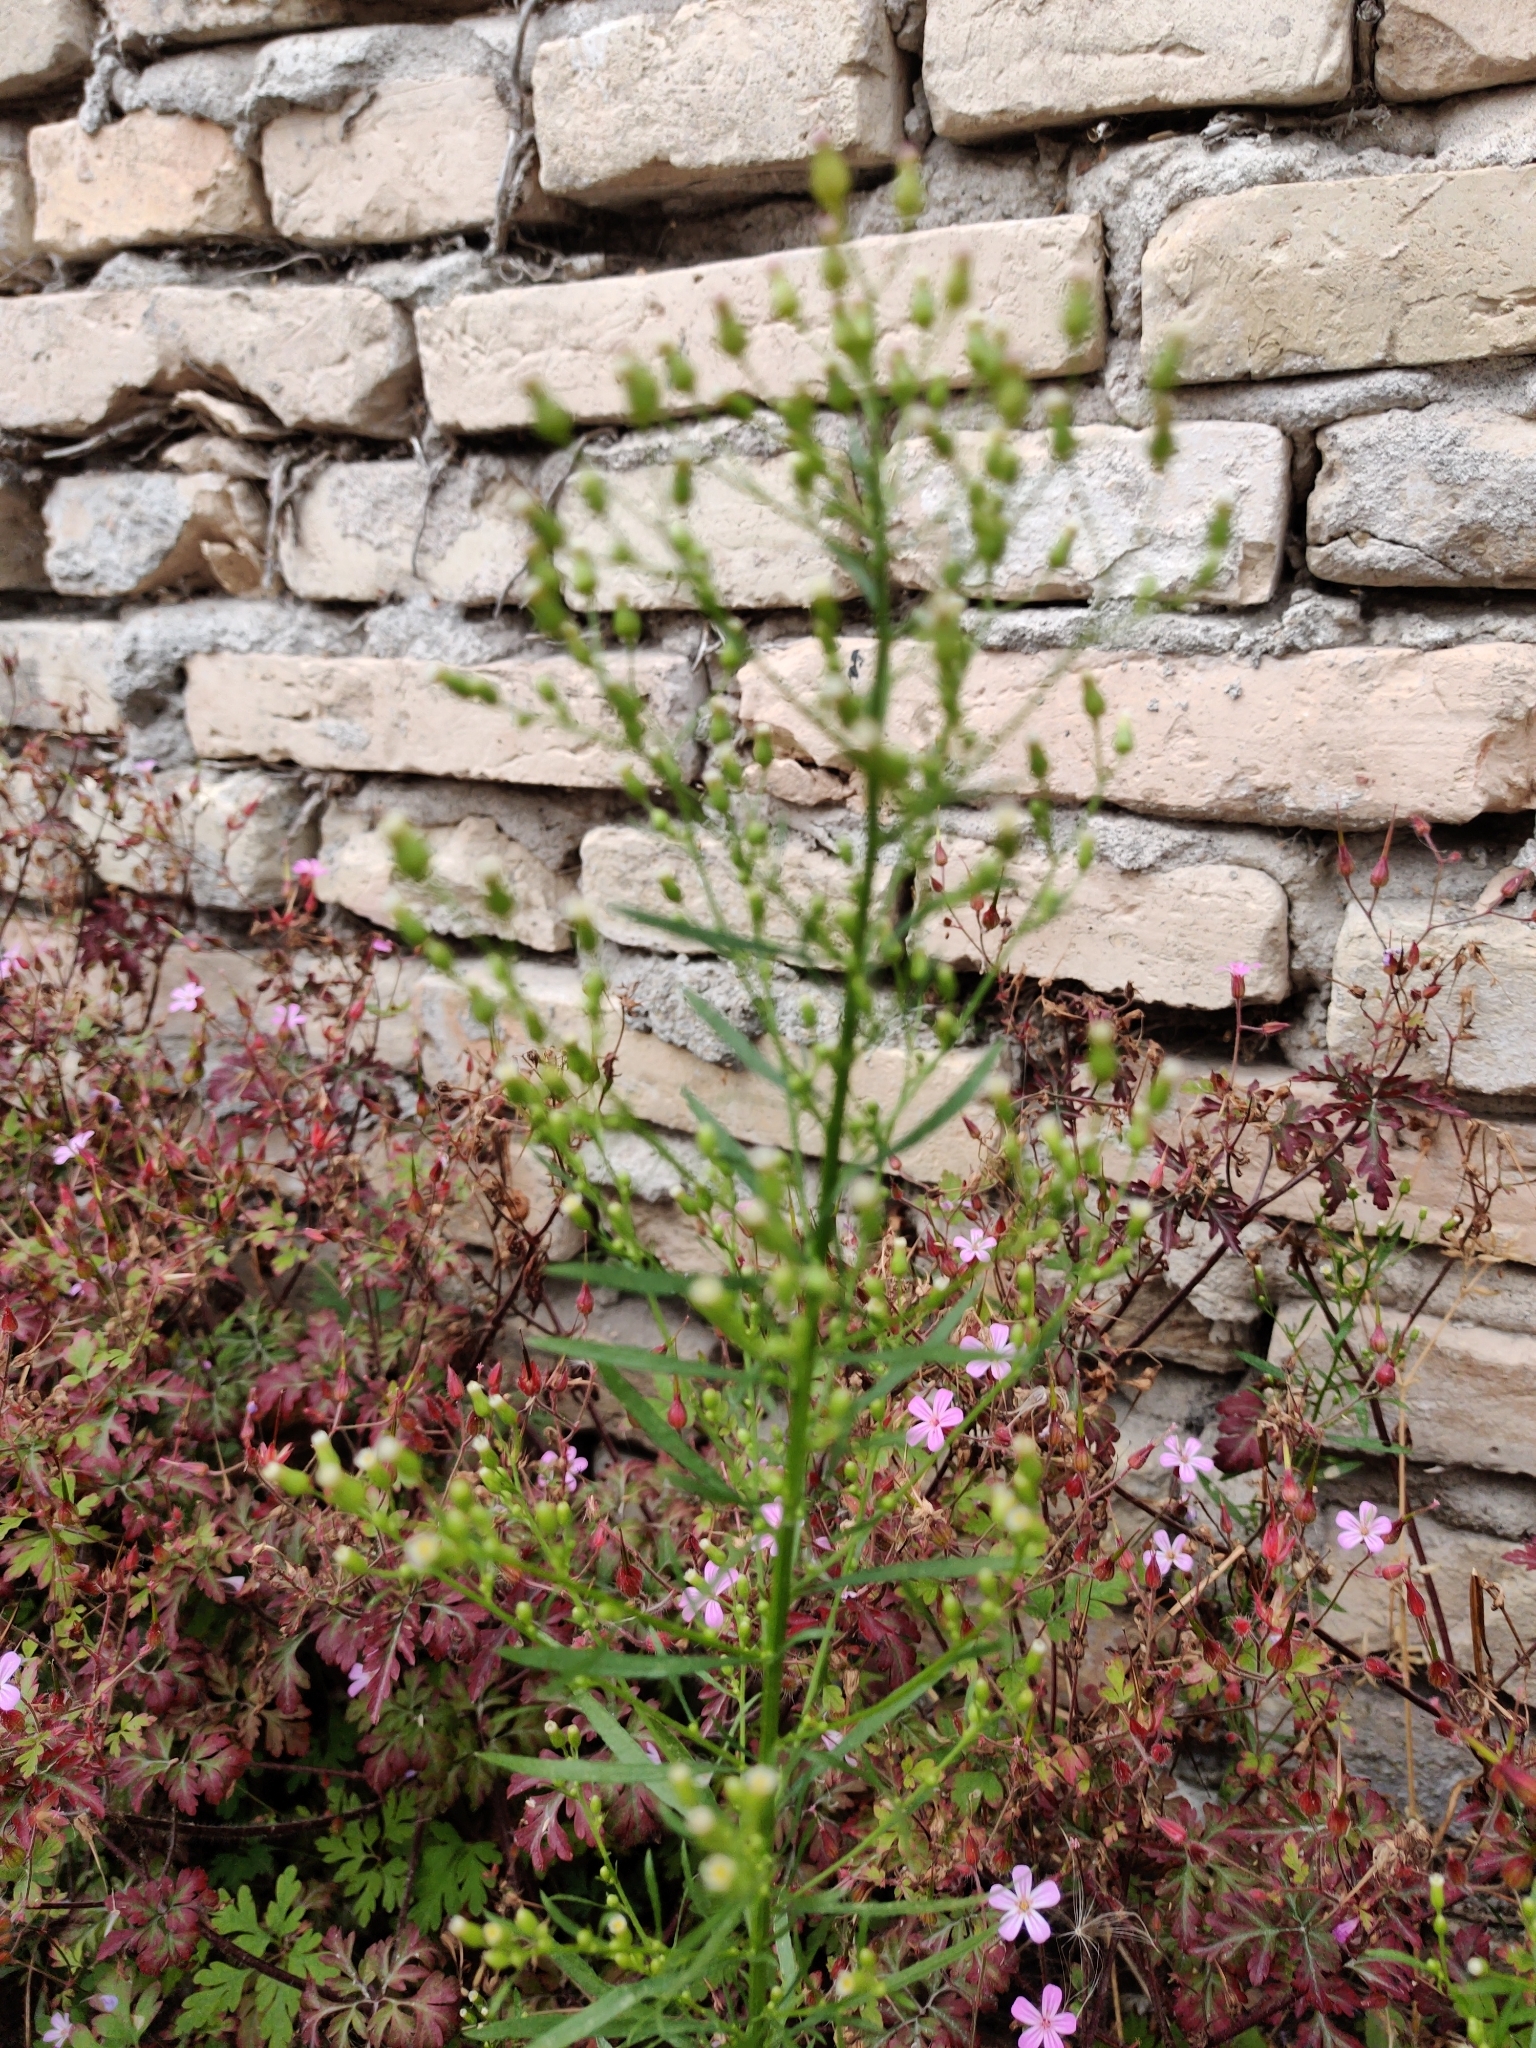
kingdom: Plantae
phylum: Tracheophyta
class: Magnoliopsida
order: Asterales
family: Asteraceae
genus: Erigeron
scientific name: Erigeron canadensis
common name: Canadian fleabane
